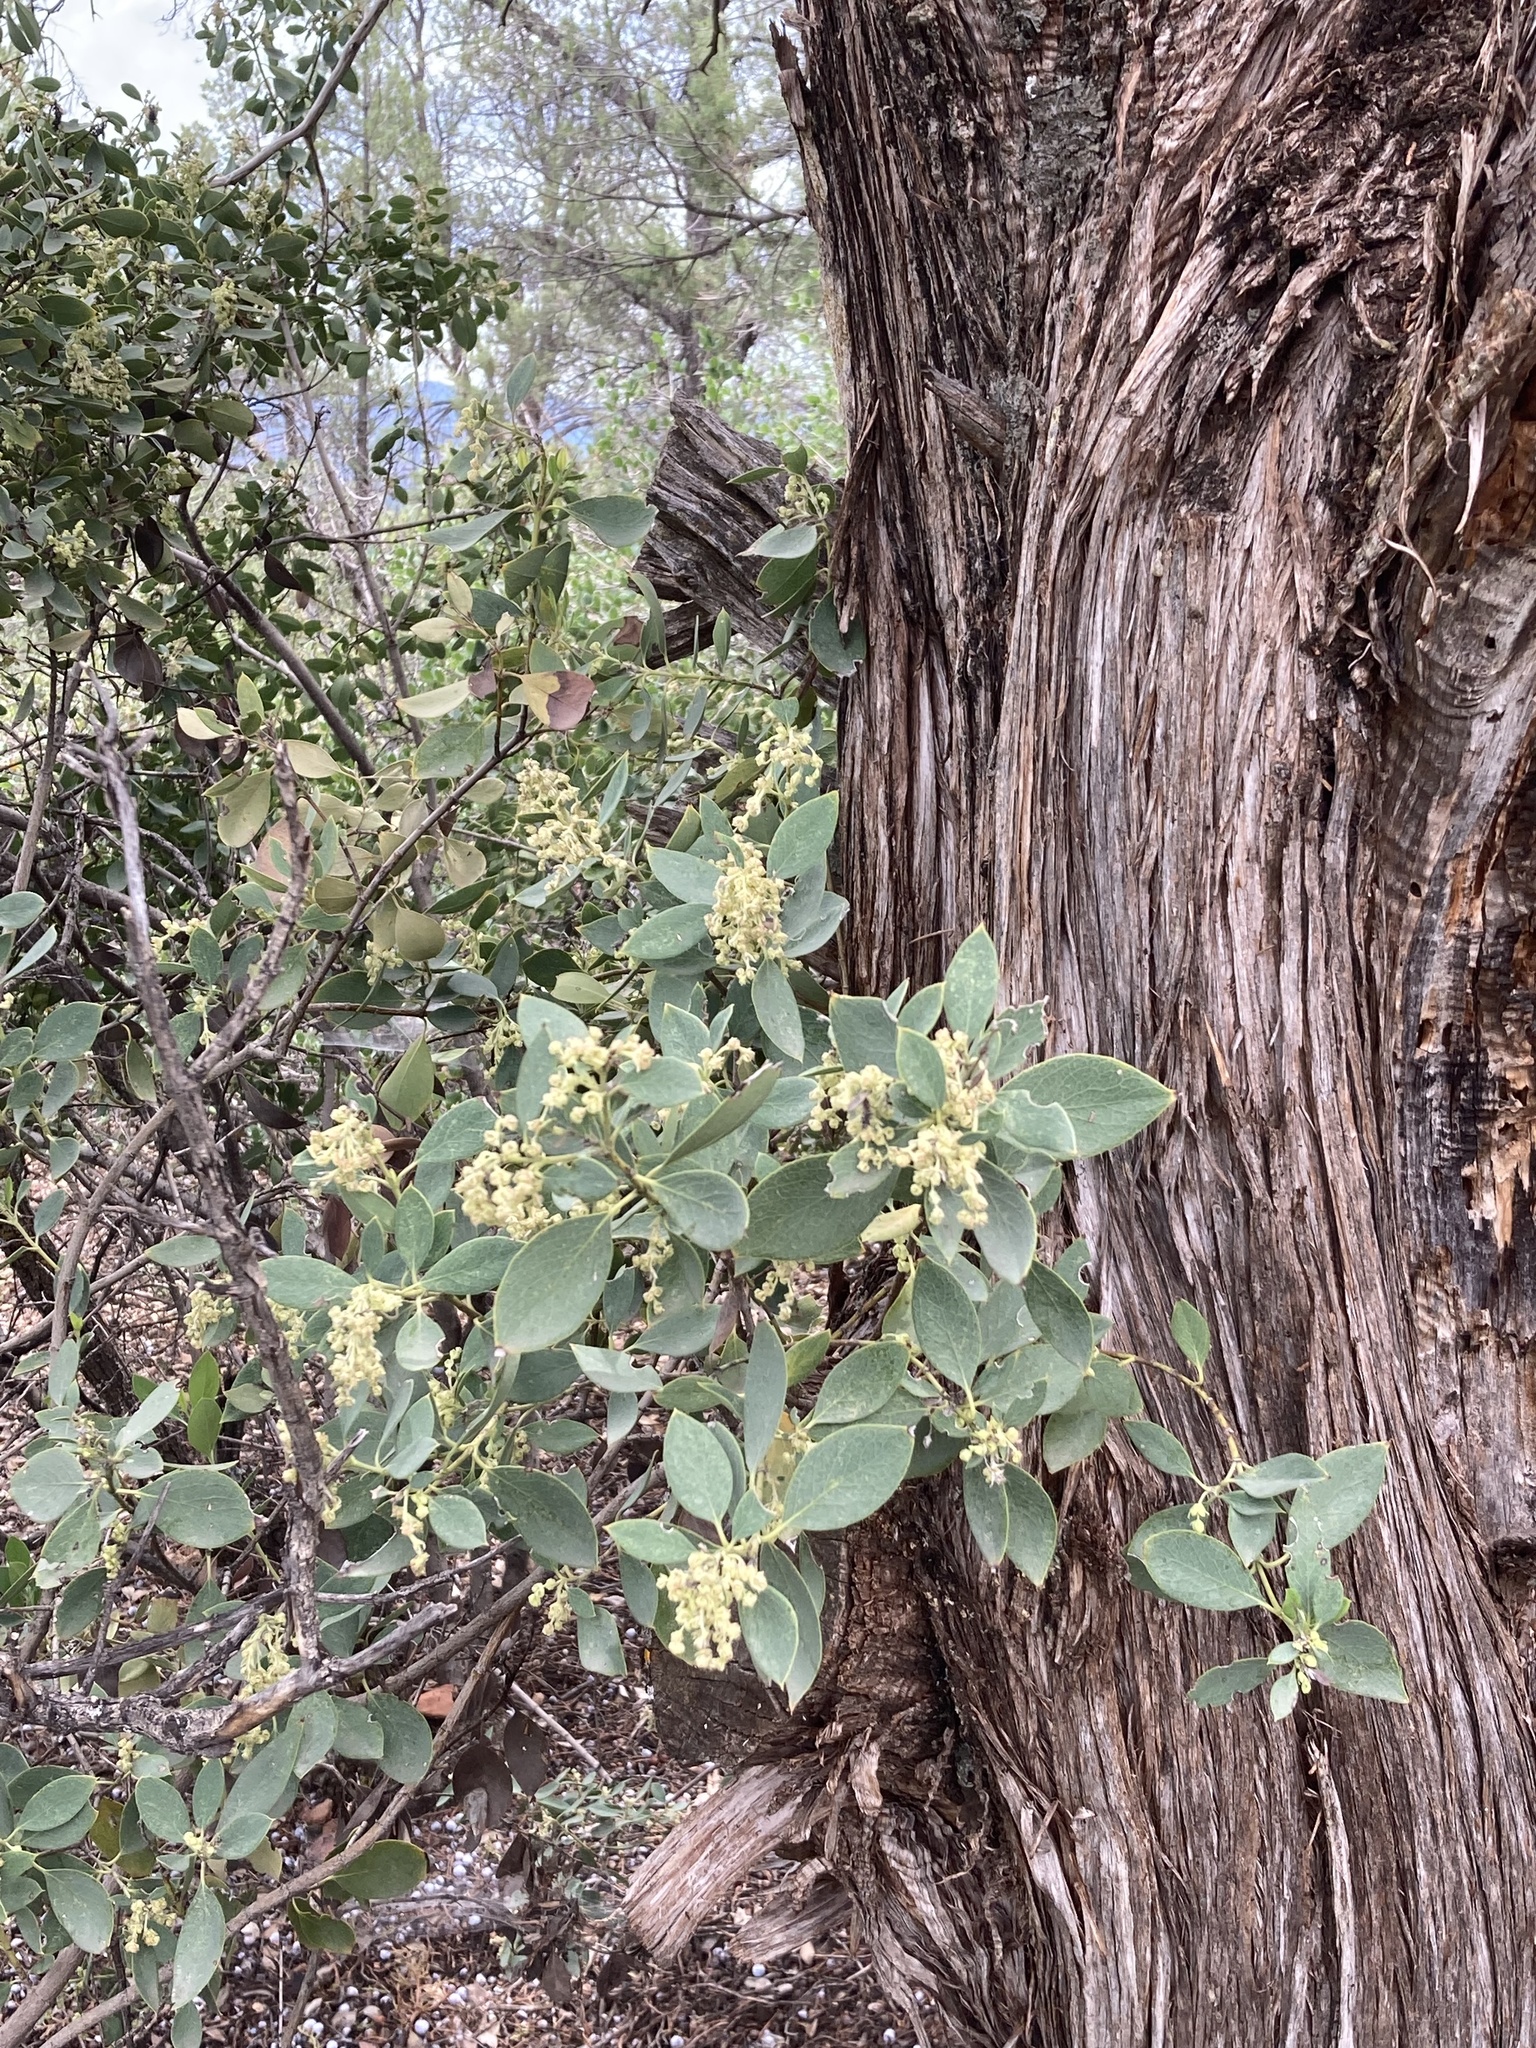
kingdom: Plantae
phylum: Tracheophyta
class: Magnoliopsida
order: Garryales
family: Garryaceae
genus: Garrya
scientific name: Garrya wrightii
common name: Wright's silktassel
